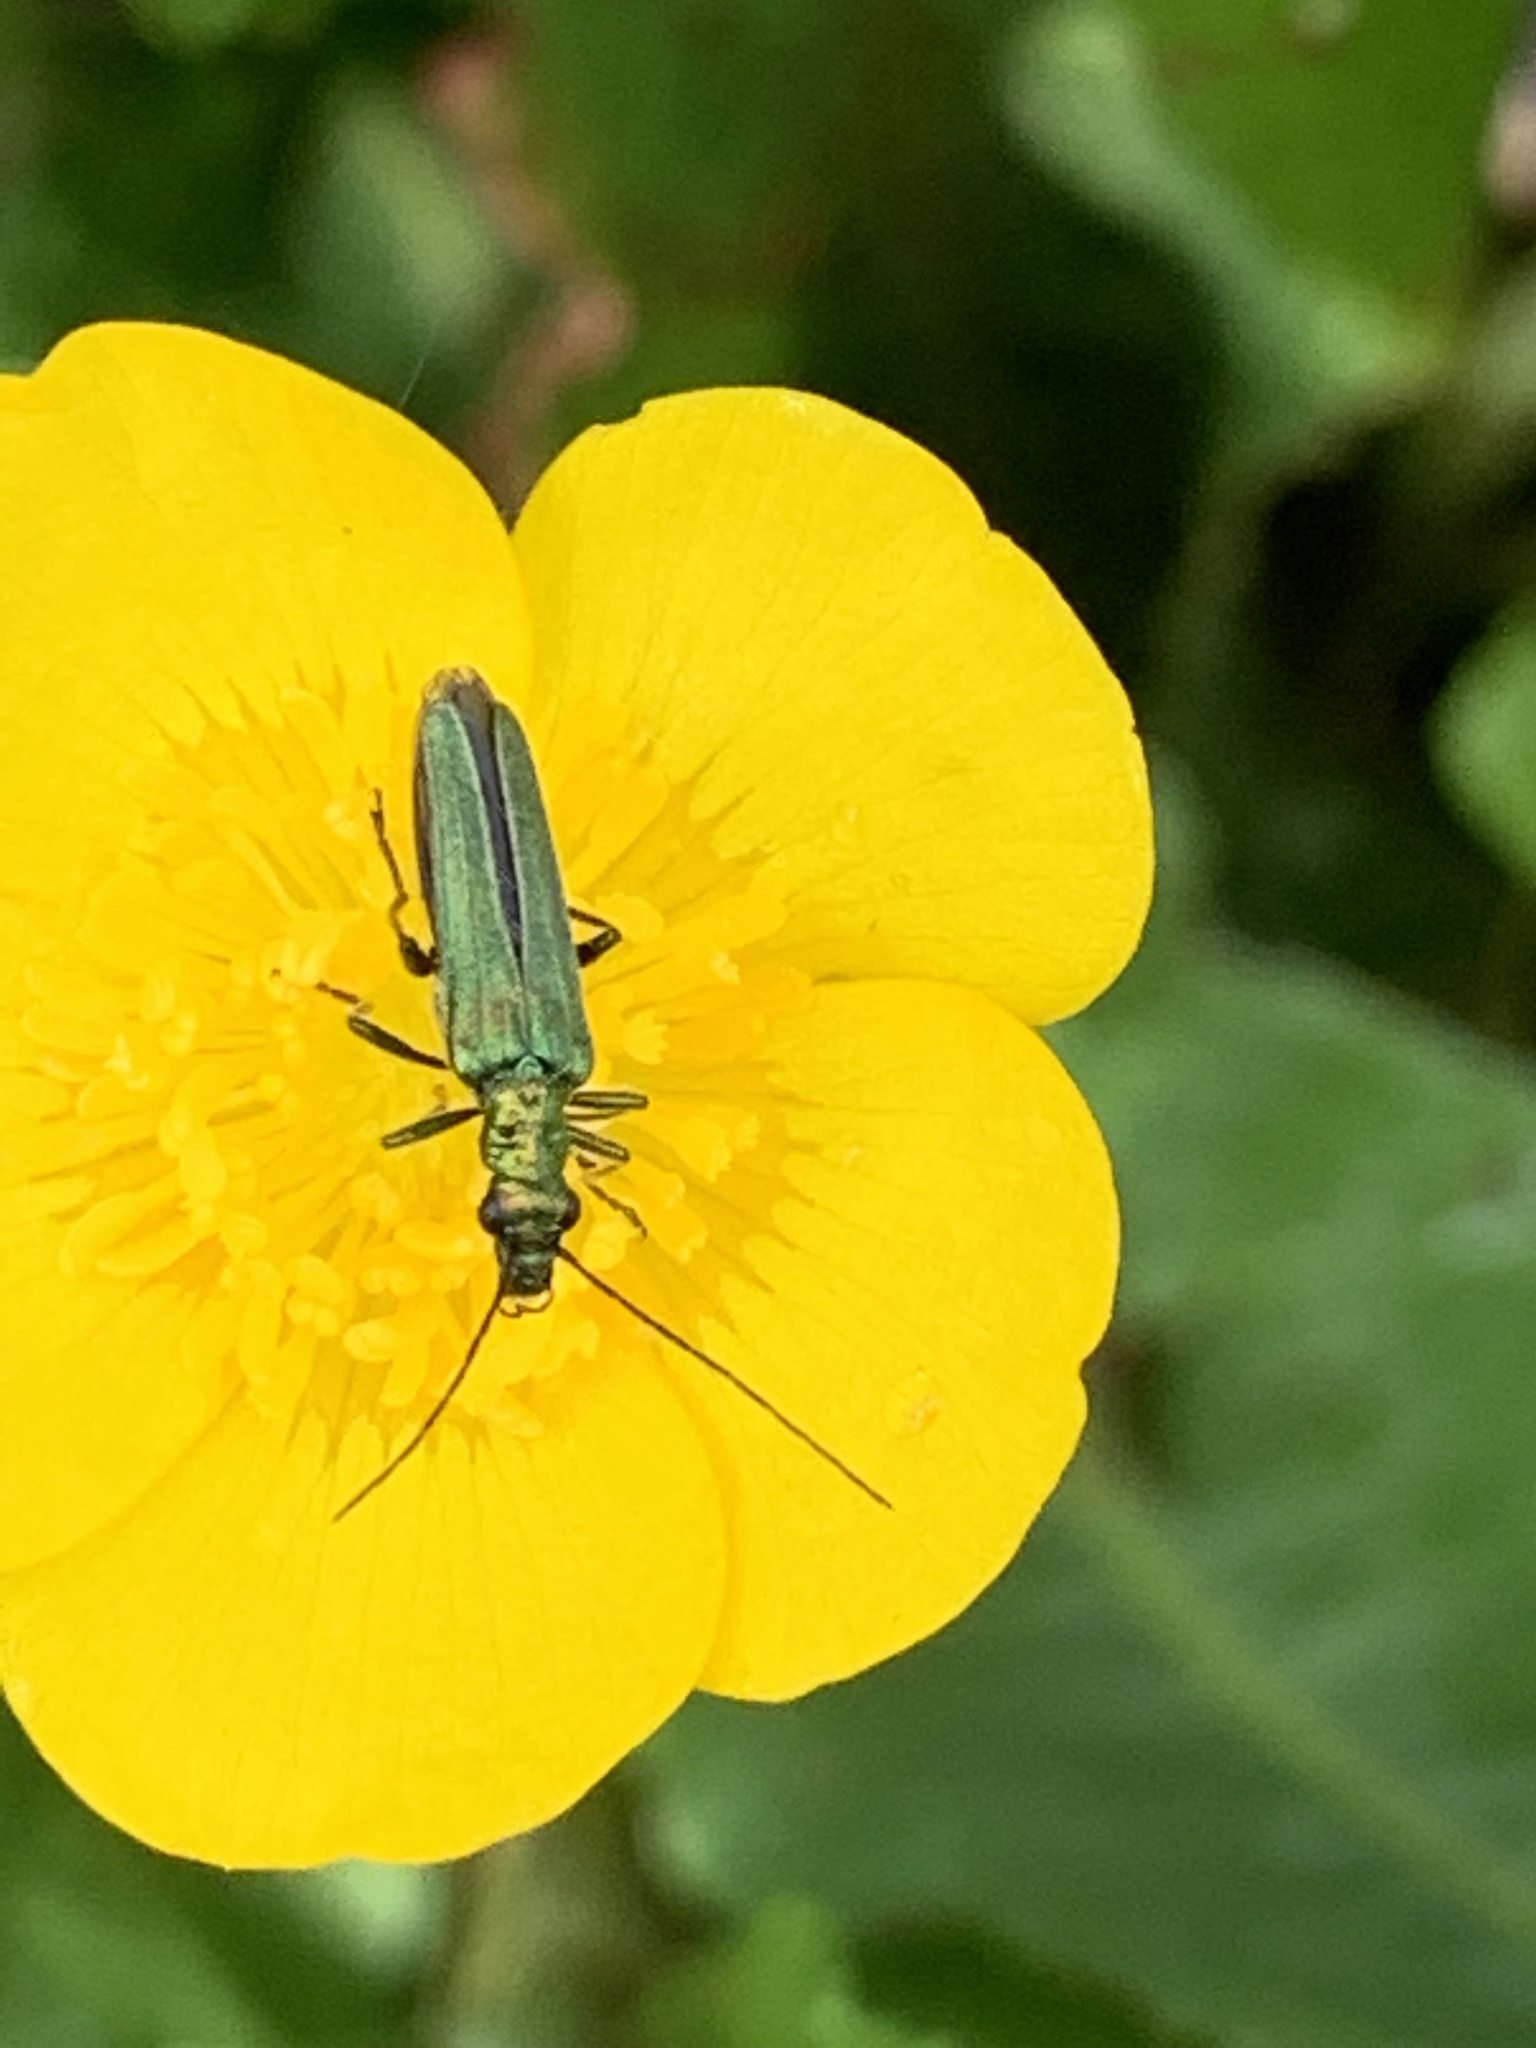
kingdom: Animalia
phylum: Arthropoda
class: Insecta
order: Coleoptera
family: Oedemeridae
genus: Oedemera
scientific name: Oedemera nobilis
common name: Swollen-thighed beetle
